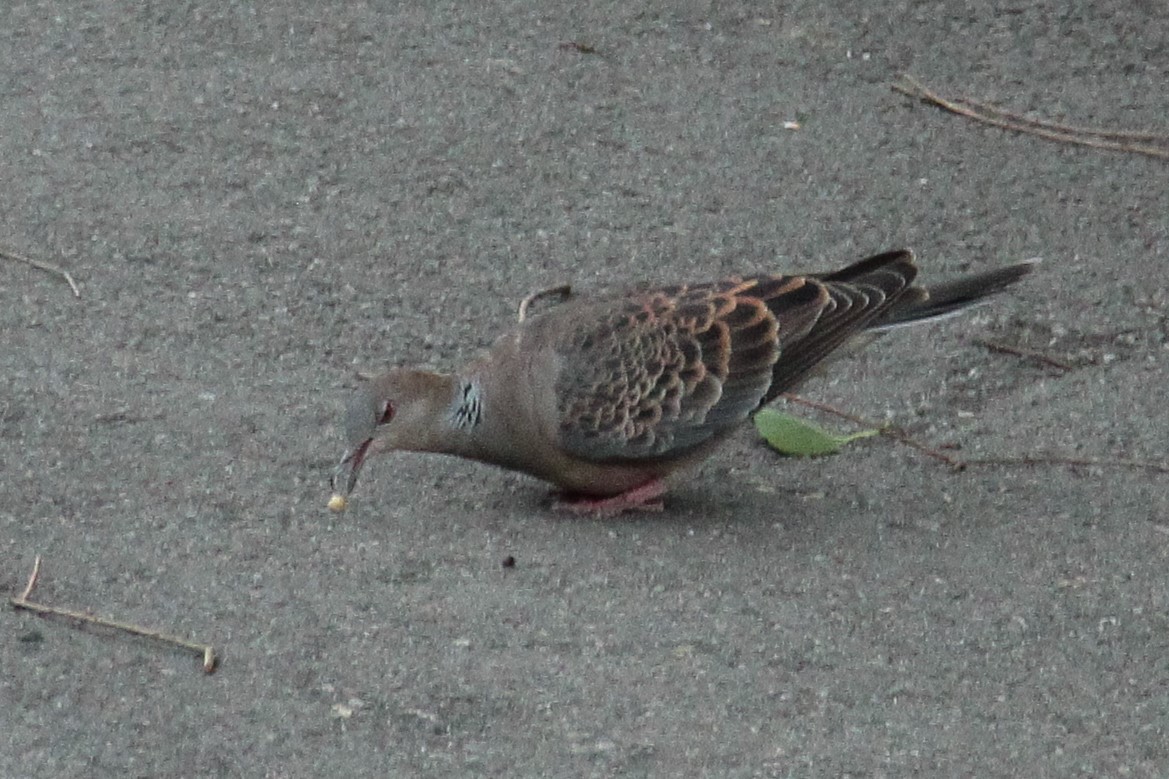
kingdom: Animalia
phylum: Chordata
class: Aves
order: Columbiformes
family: Columbidae
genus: Streptopelia
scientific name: Streptopelia orientalis
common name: Oriental turtle dove
